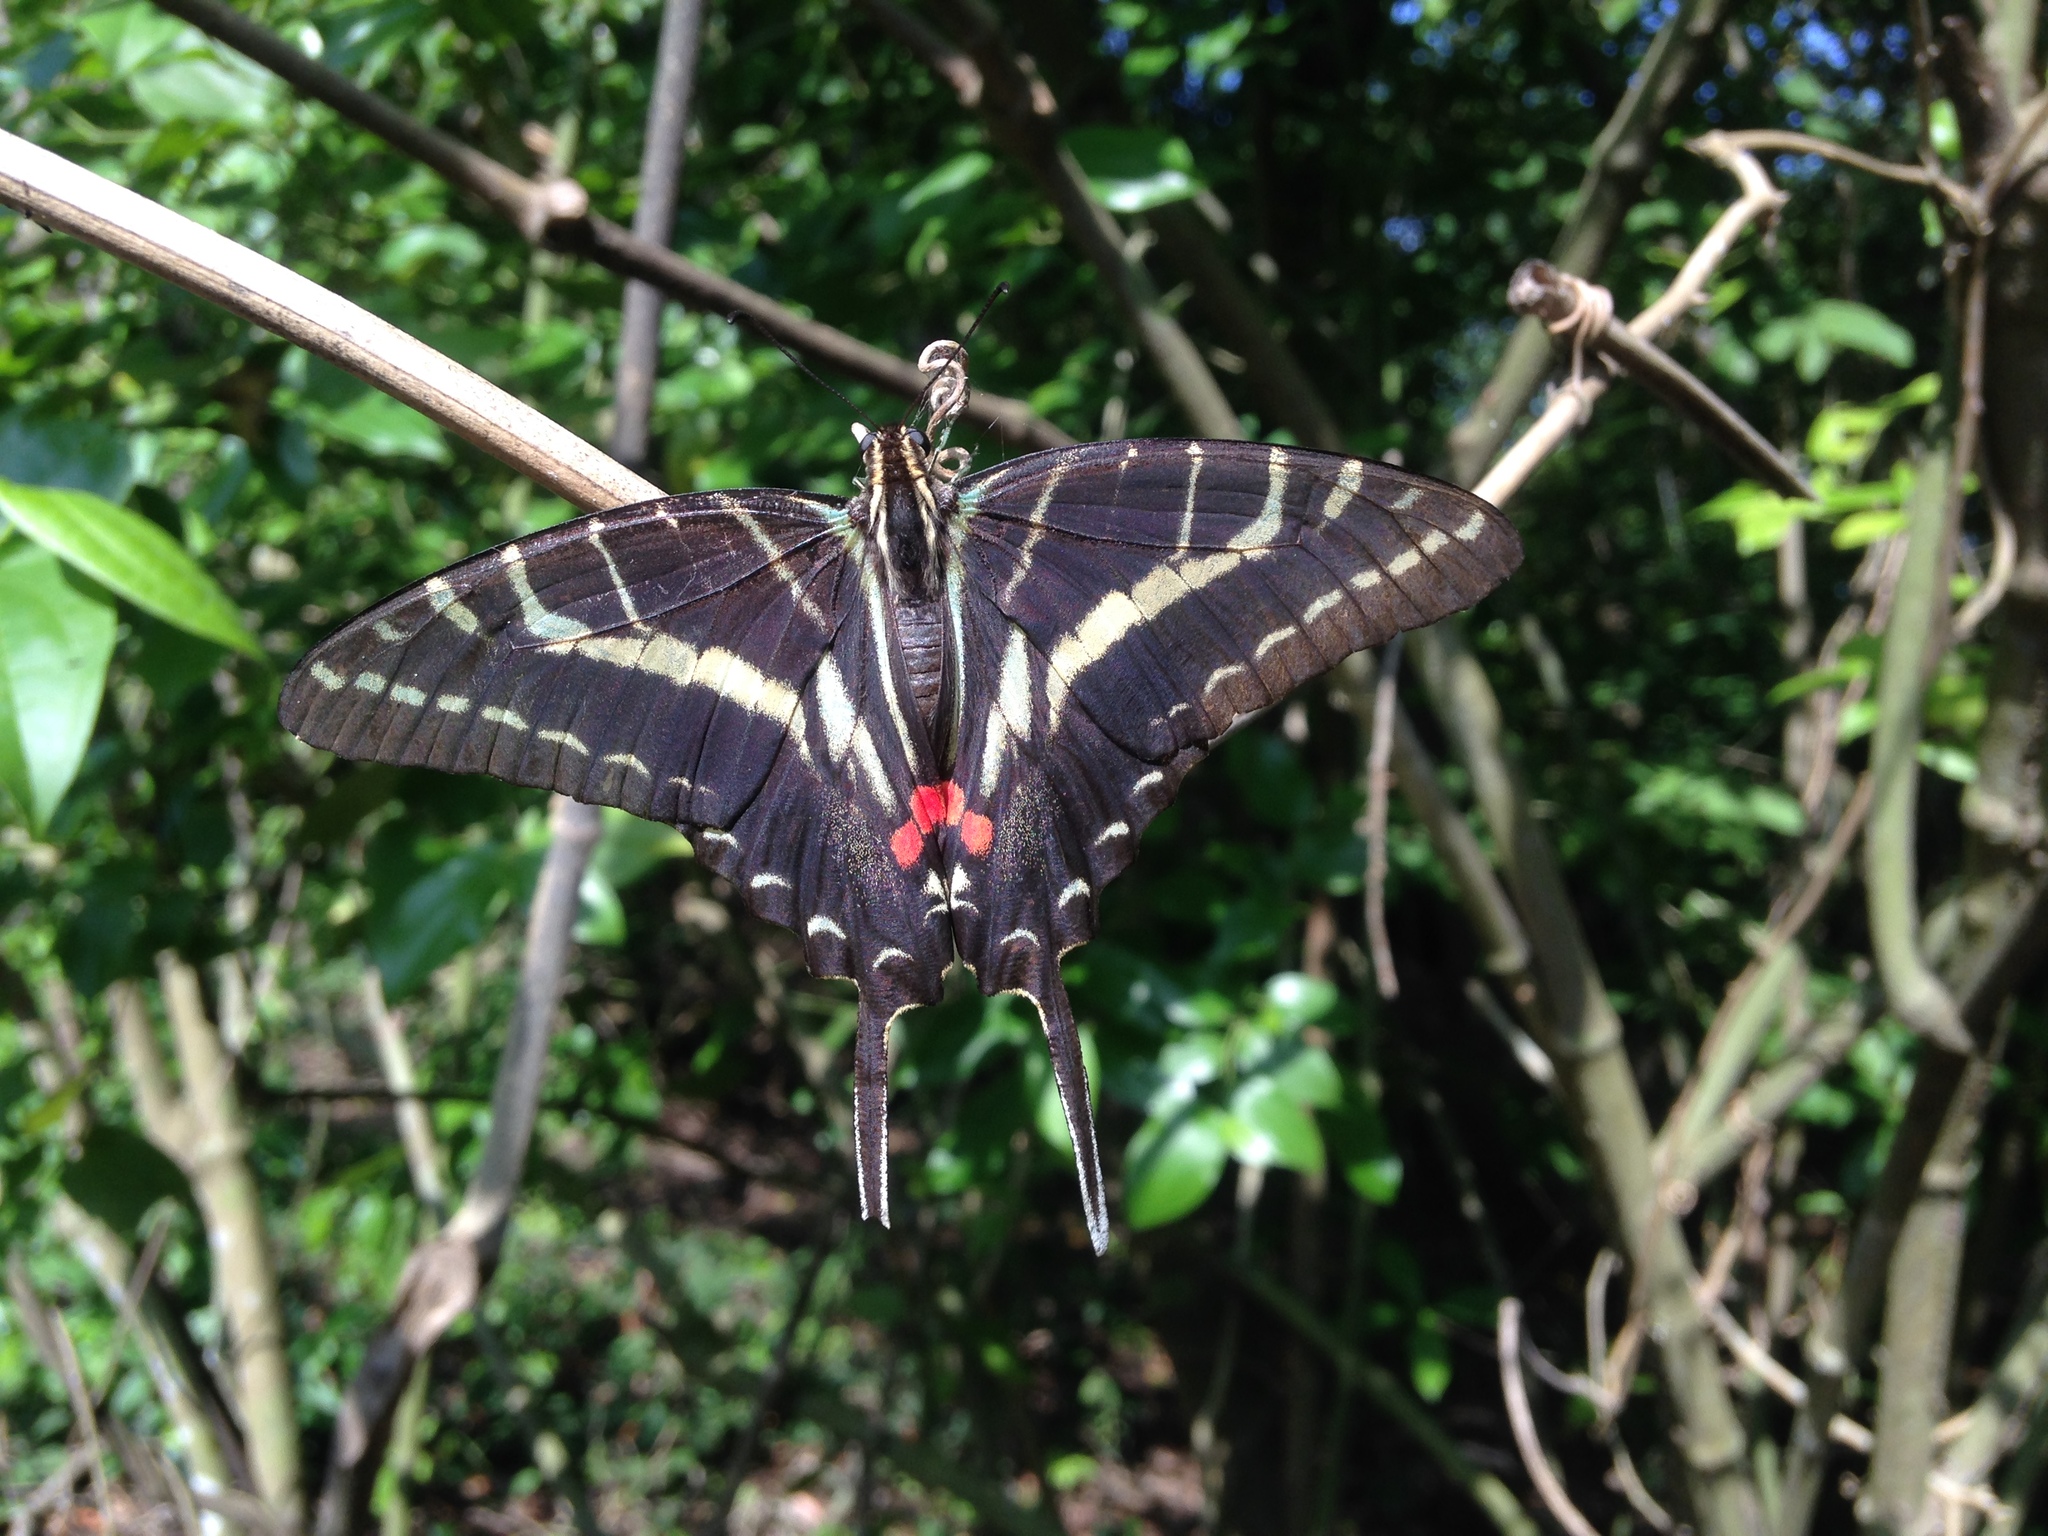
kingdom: Animalia
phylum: Arthropoda
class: Insecta
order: Lepidoptera
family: Papilionidae
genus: Protographium
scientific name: Protographium philolaus
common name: Dark zebra swallowtail
